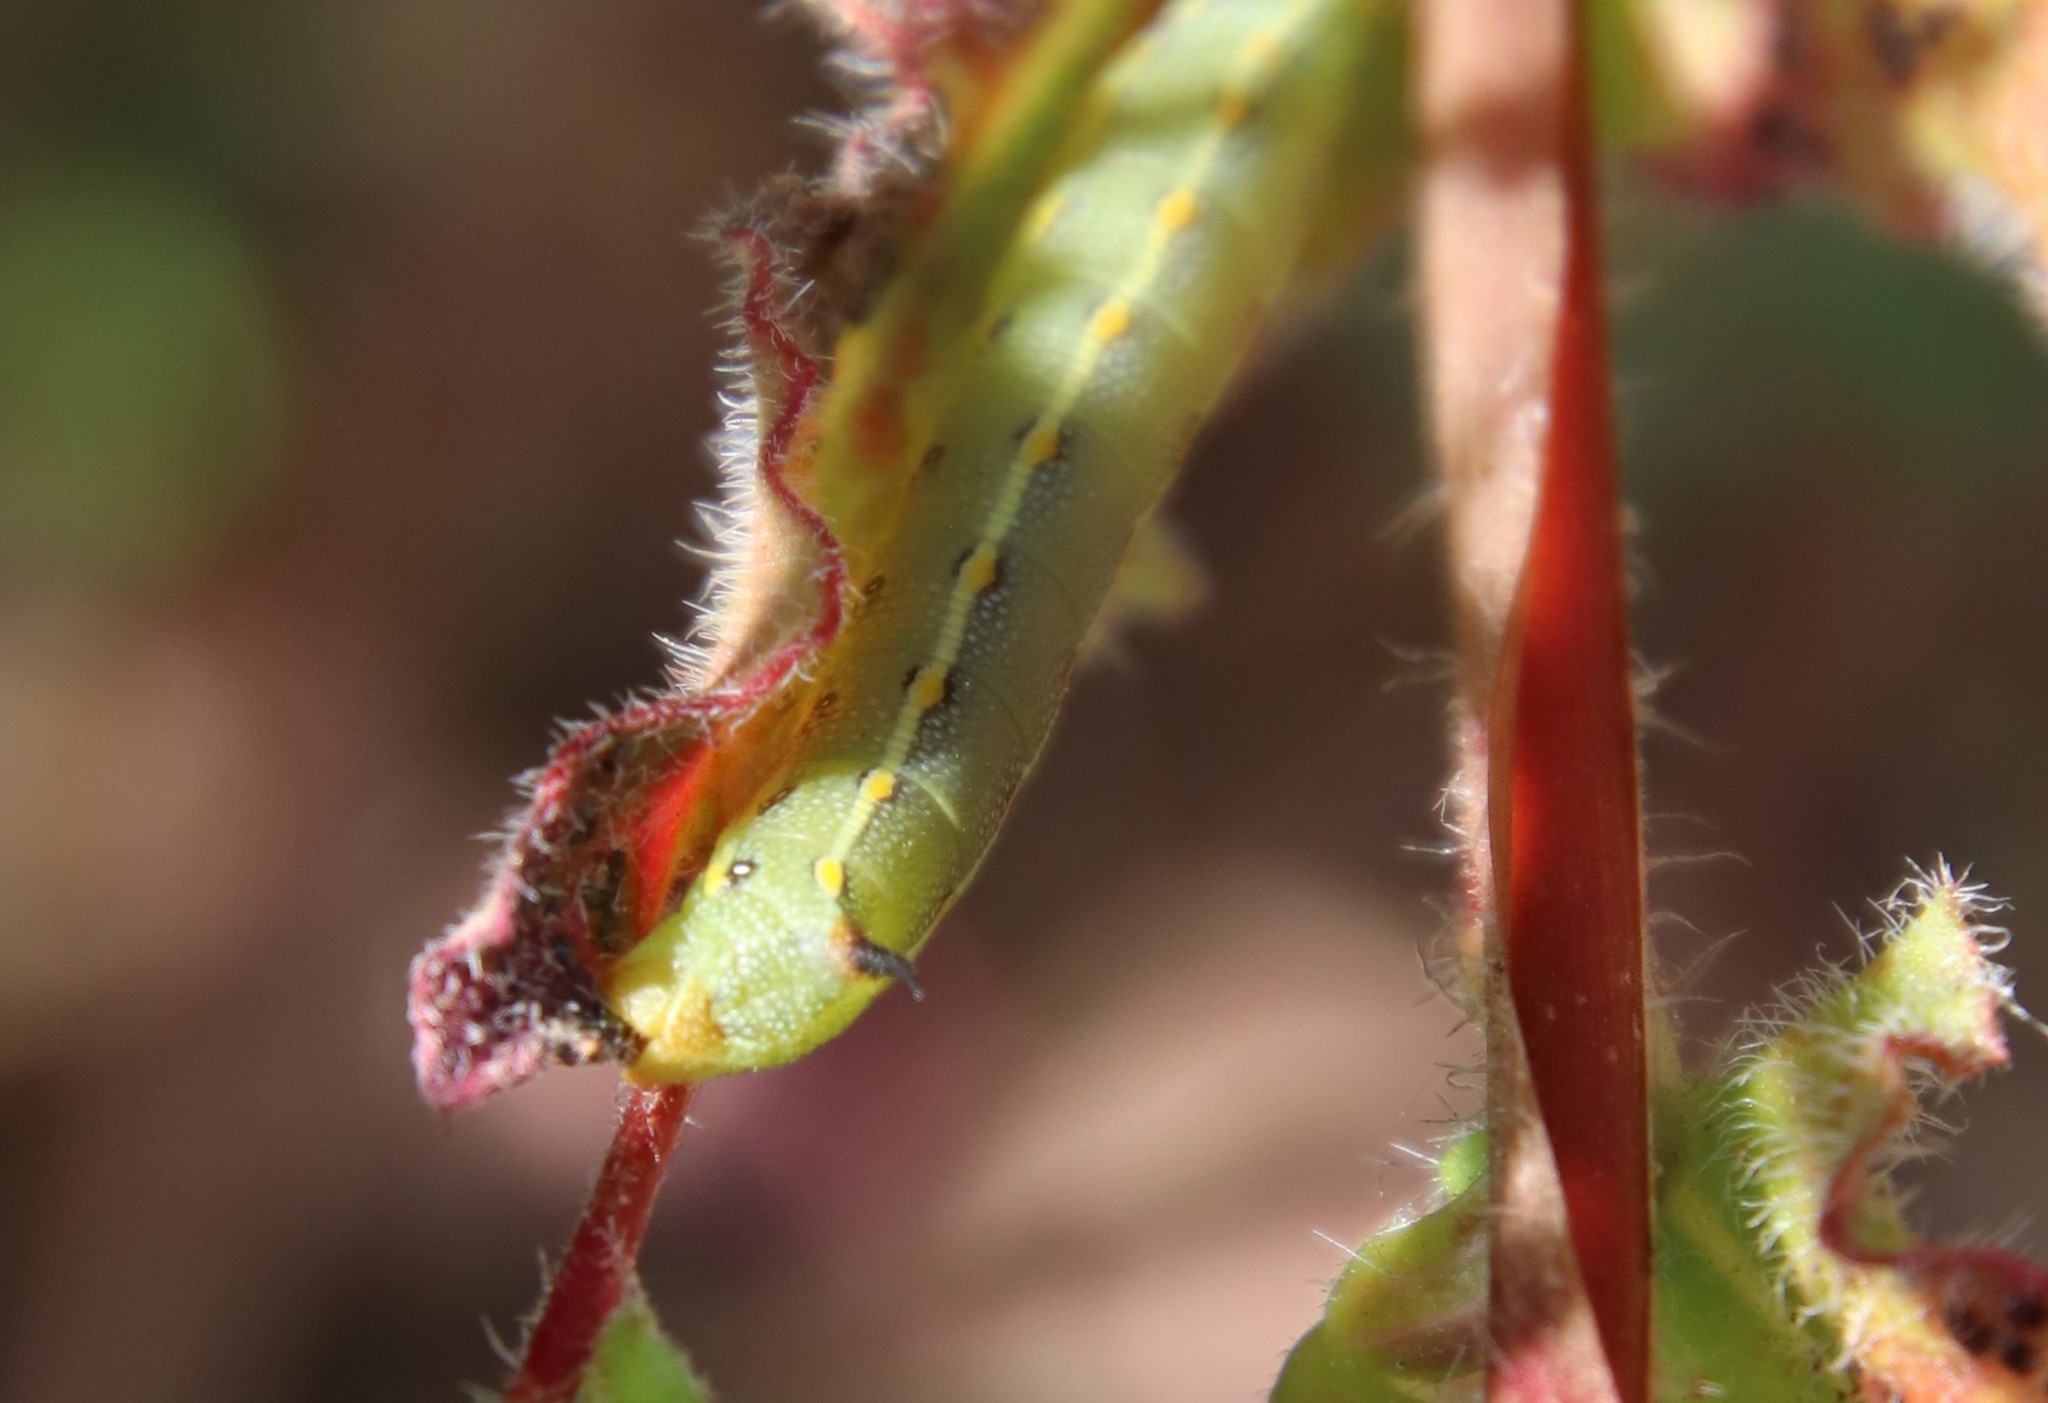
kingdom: Animalia
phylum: Arthropoda
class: Insecta
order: Lepidoptera
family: Sphingidae
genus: Hyles
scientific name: Hyles lineata
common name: White-lined sphinx
